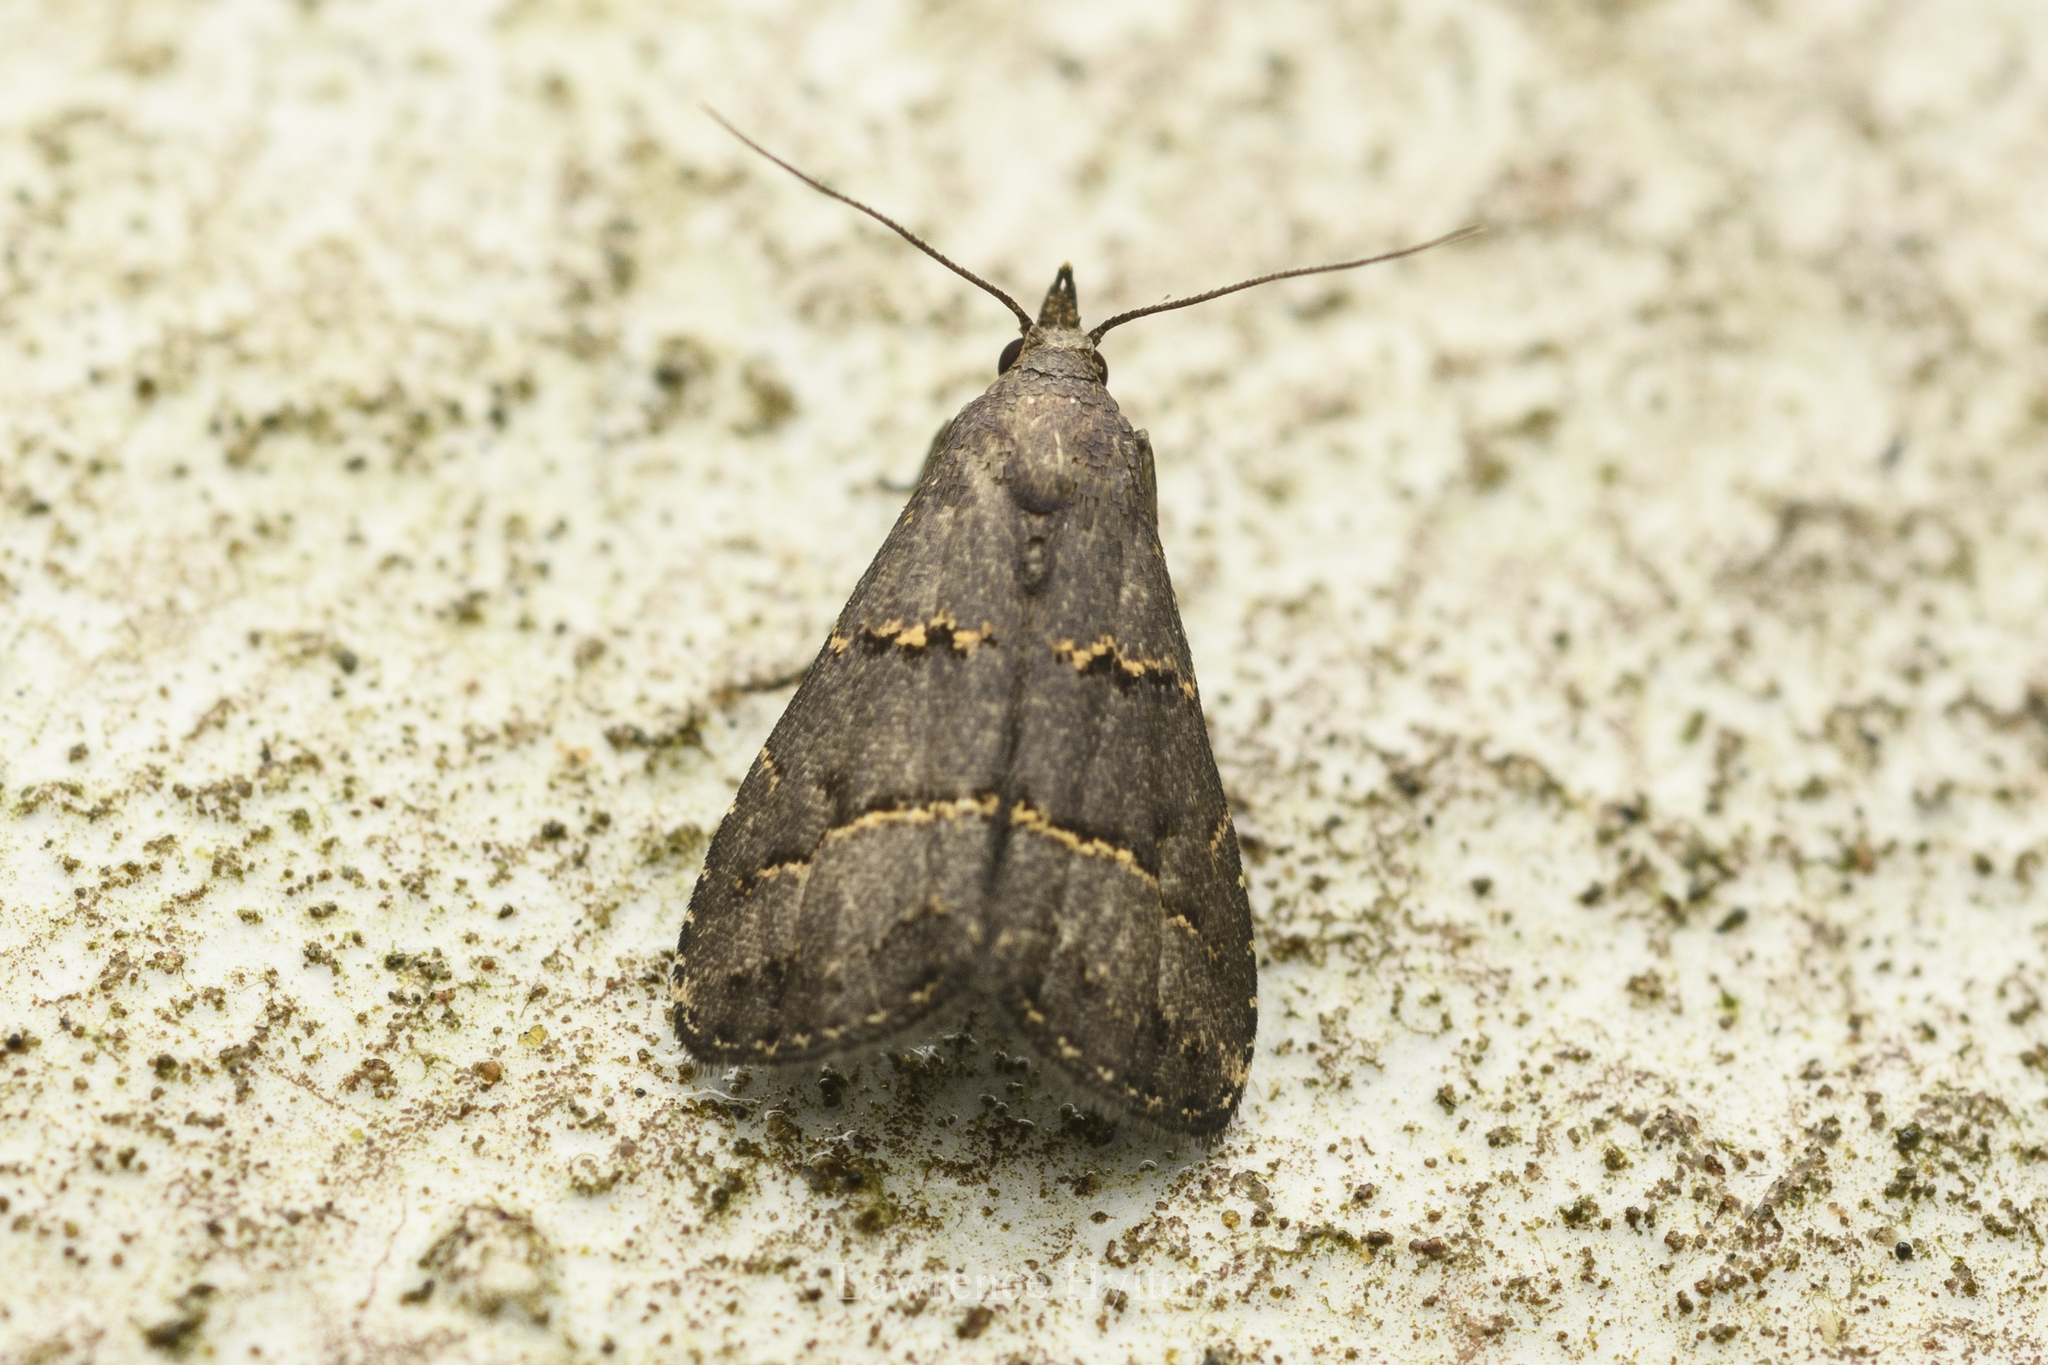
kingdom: Animalia
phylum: Arthropoda
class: Insecta
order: Lepidoptera
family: Erebidae
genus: Schrankia
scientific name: Schrankia bilineata
